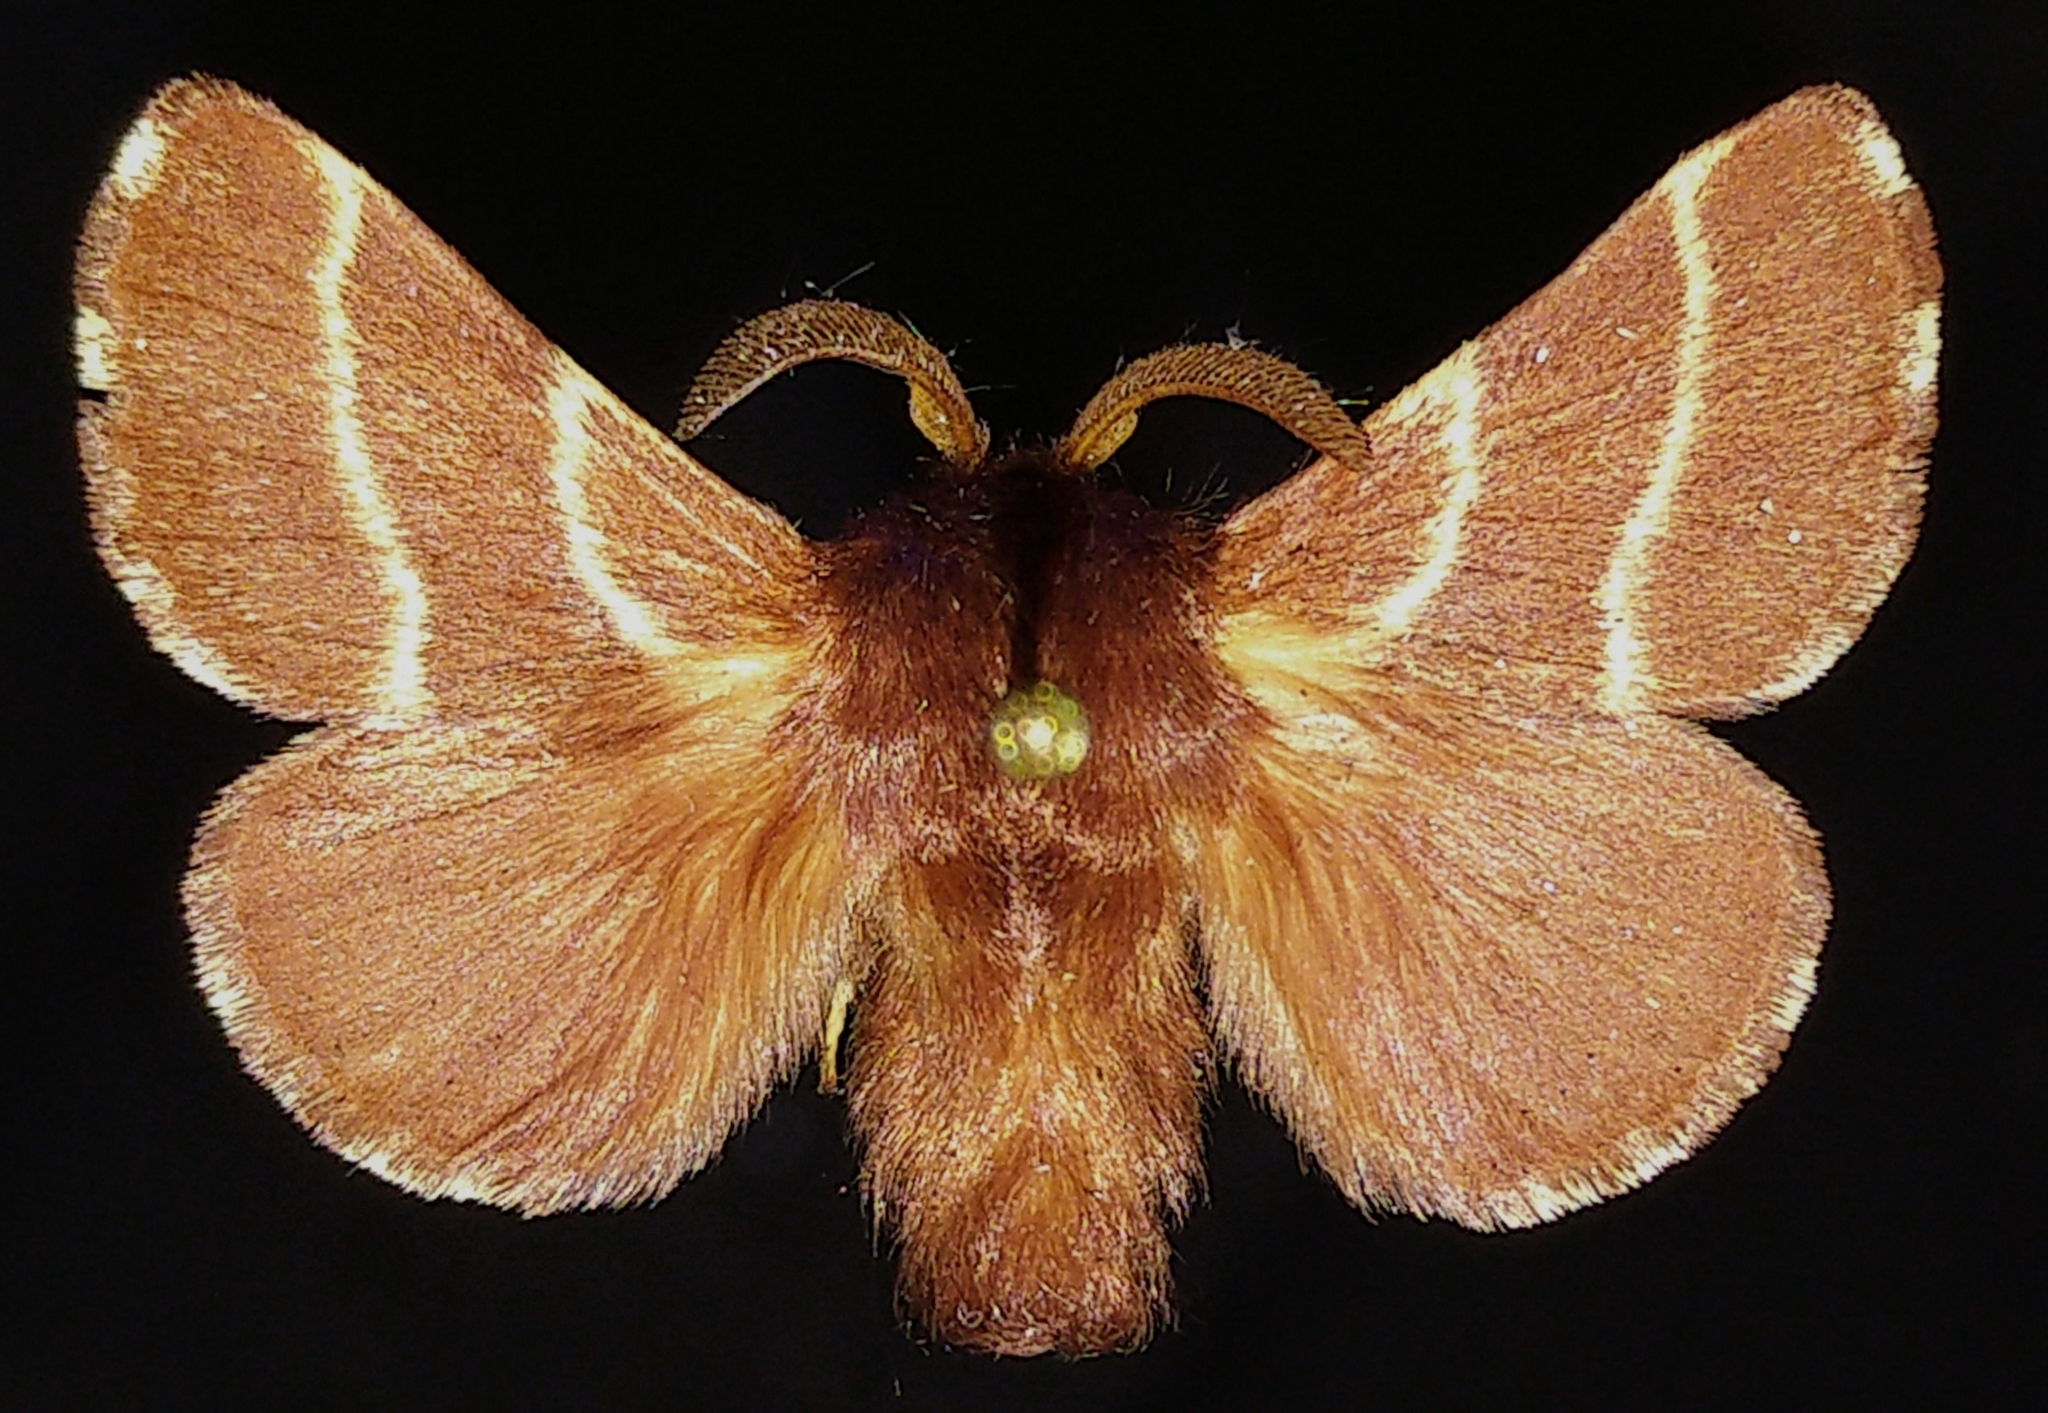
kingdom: Animalia
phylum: Arthropoda
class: Insecta
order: Lepidoptera
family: Lasiocampidae
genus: Malacosoma
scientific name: Malacosoma californica
